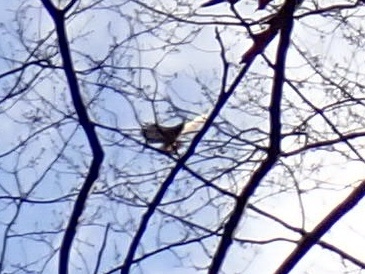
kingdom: Animalia
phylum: Chordata
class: Aves
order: Accipitriformes
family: Accipitridae
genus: Buteo
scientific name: Buteo jamaicensis
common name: Red-tailed hawk
